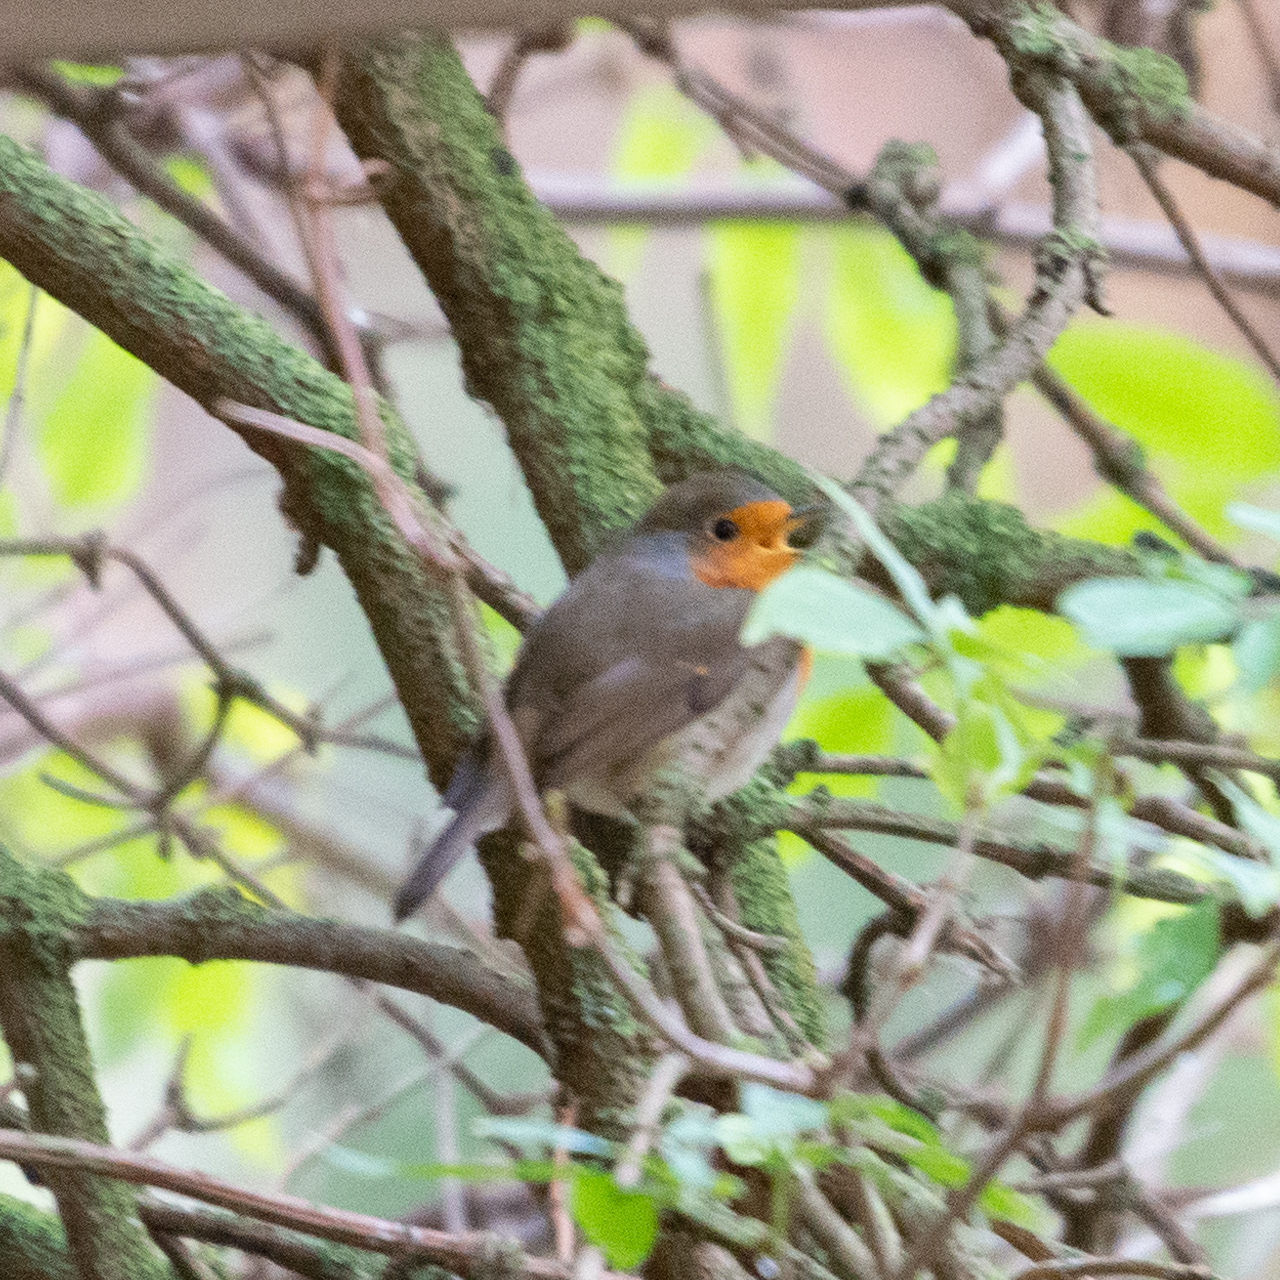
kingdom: Animalia
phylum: Chordata
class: Aves
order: Passeriformes
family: Muscicapidae
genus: Erithacus
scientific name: Erithacus rubecula
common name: European robin
